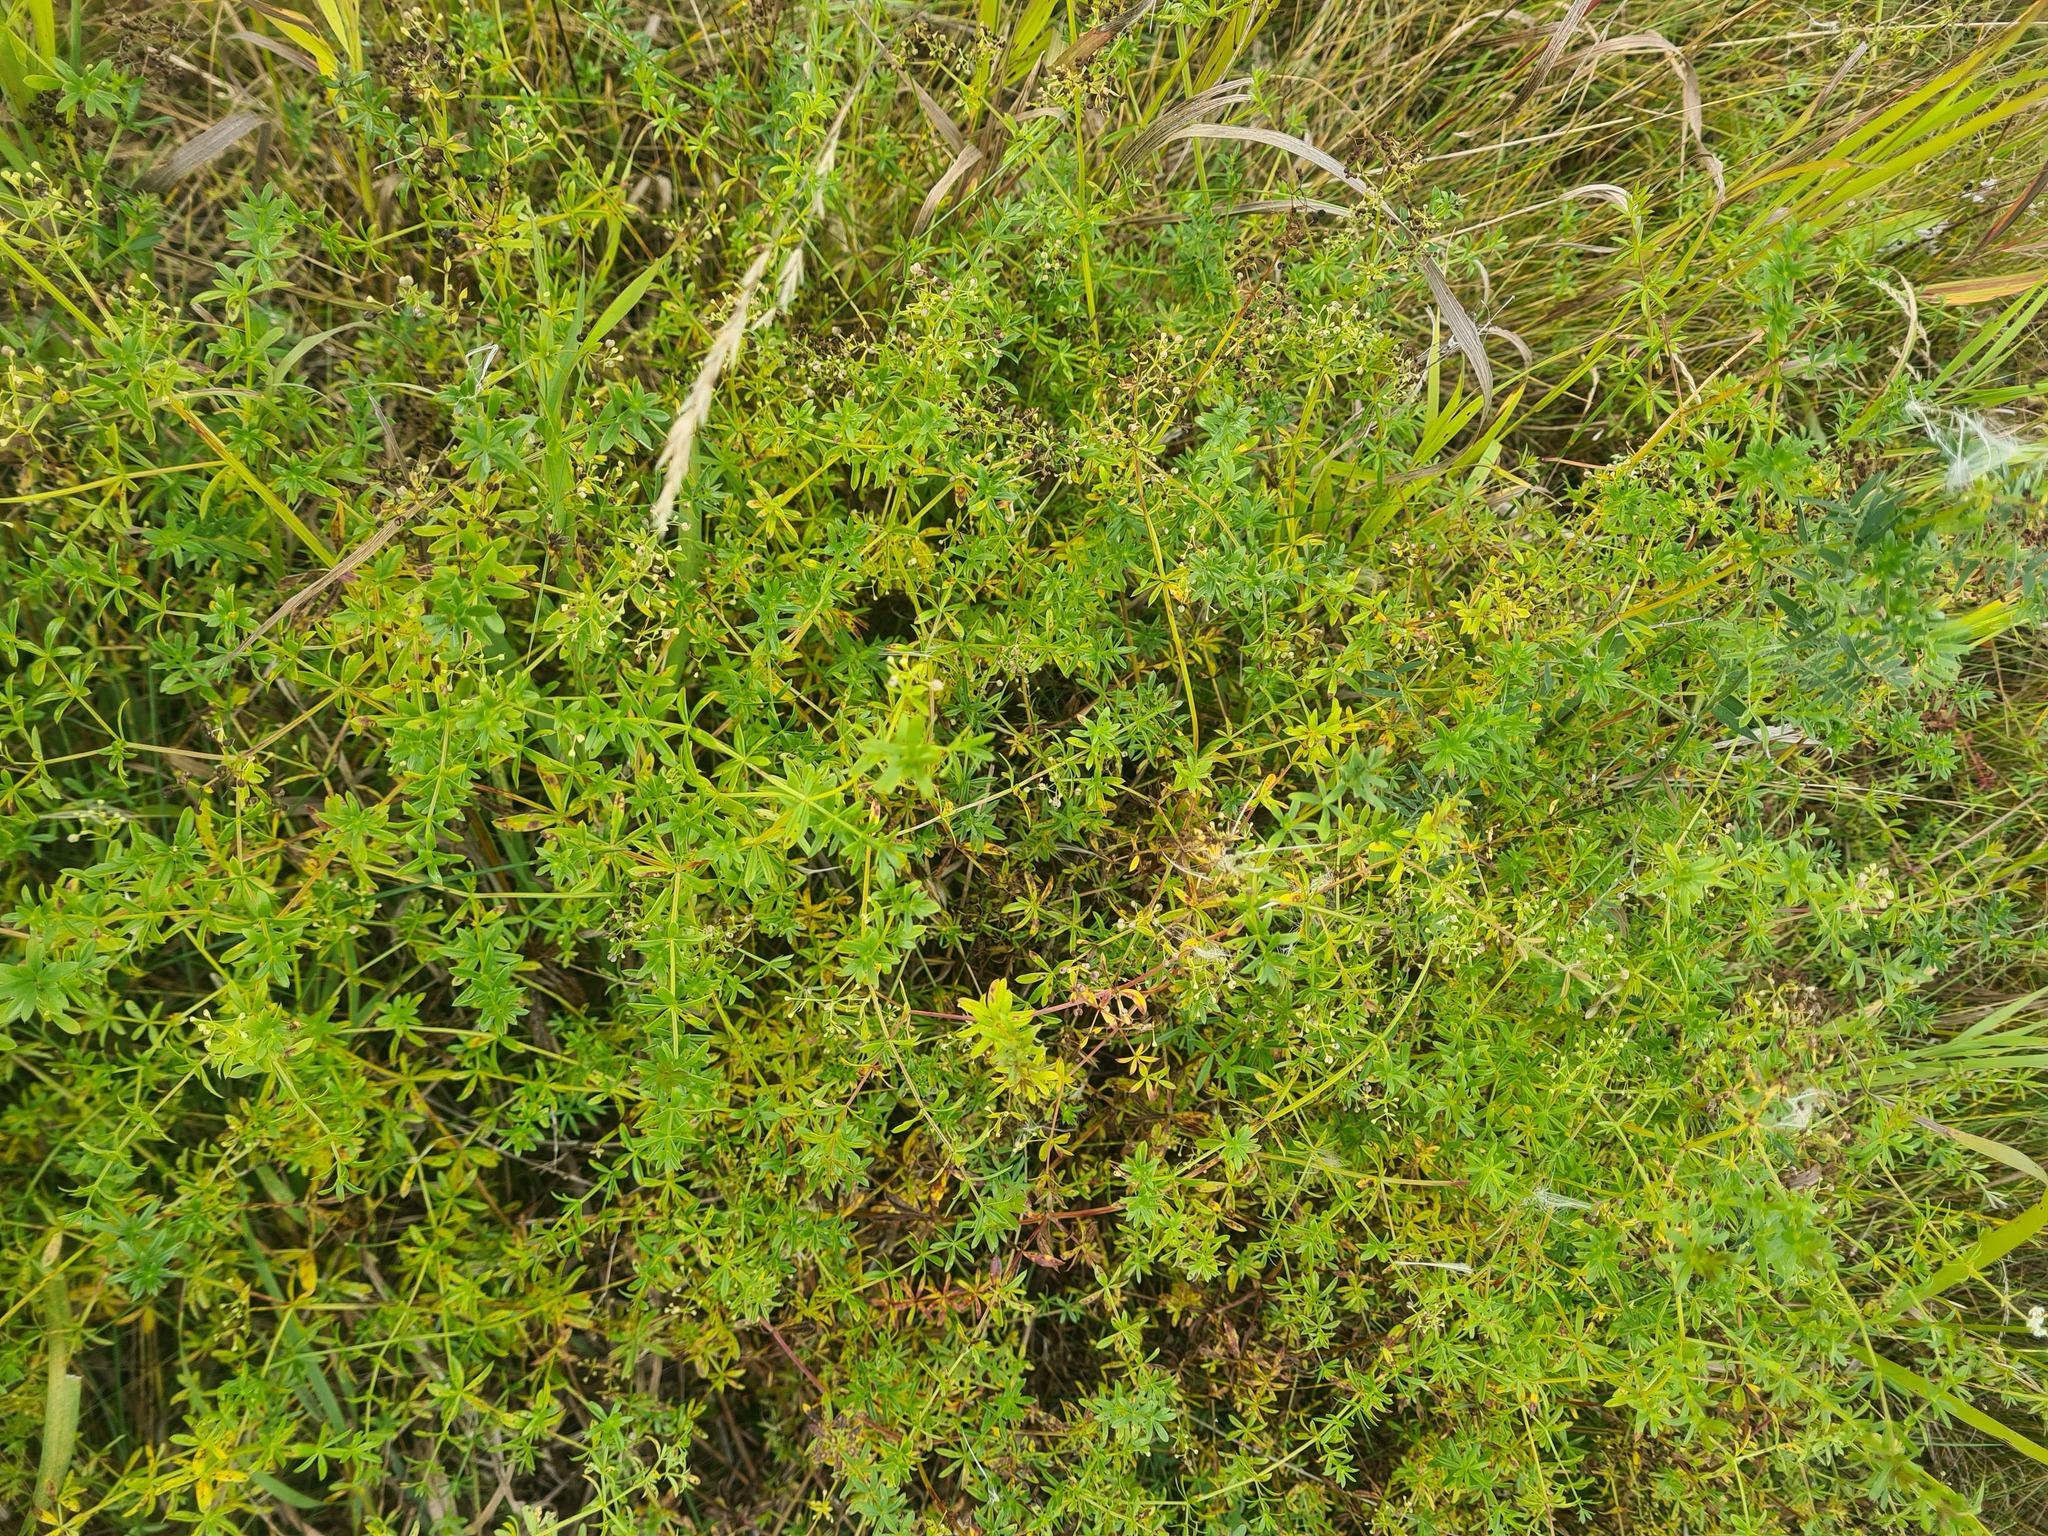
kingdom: Plantae
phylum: Tracheophyta
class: Magnoliopsida
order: Gentianales
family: Rubiaceae
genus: Galium
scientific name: Galium mollugo
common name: Hedge bedstraw
